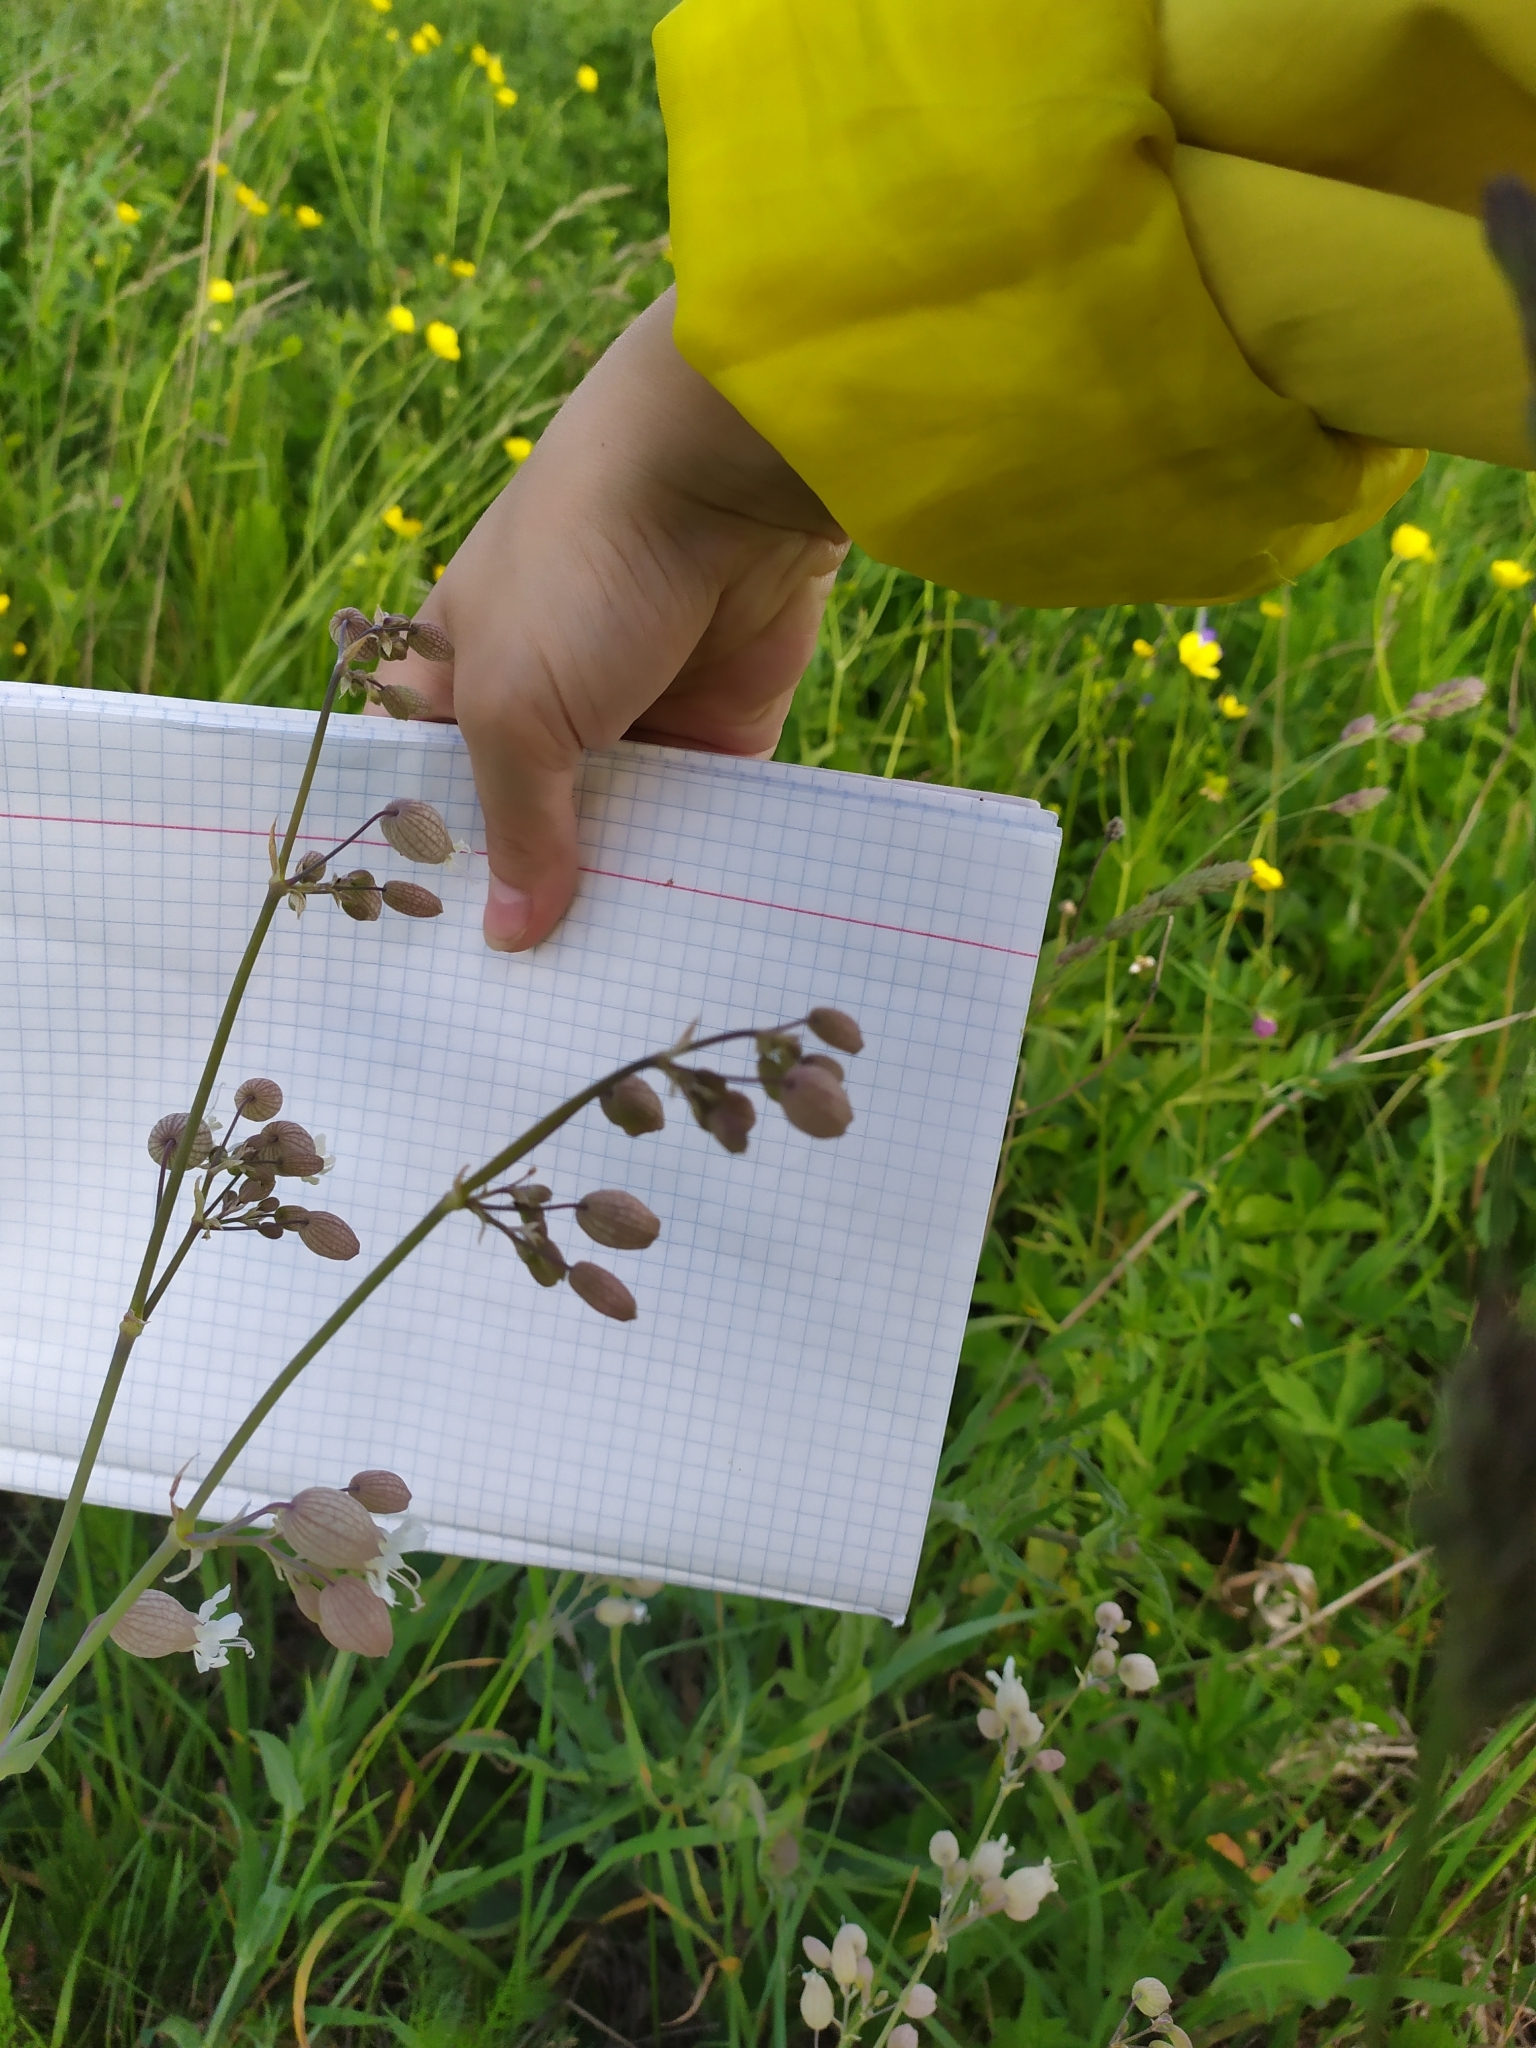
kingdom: Plantae
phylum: Tracheophyta
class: Magnoliopsida
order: Caryophyllales
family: Caryophyllaceae
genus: Silene
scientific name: Silene vulgaris
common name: Bladder campion
